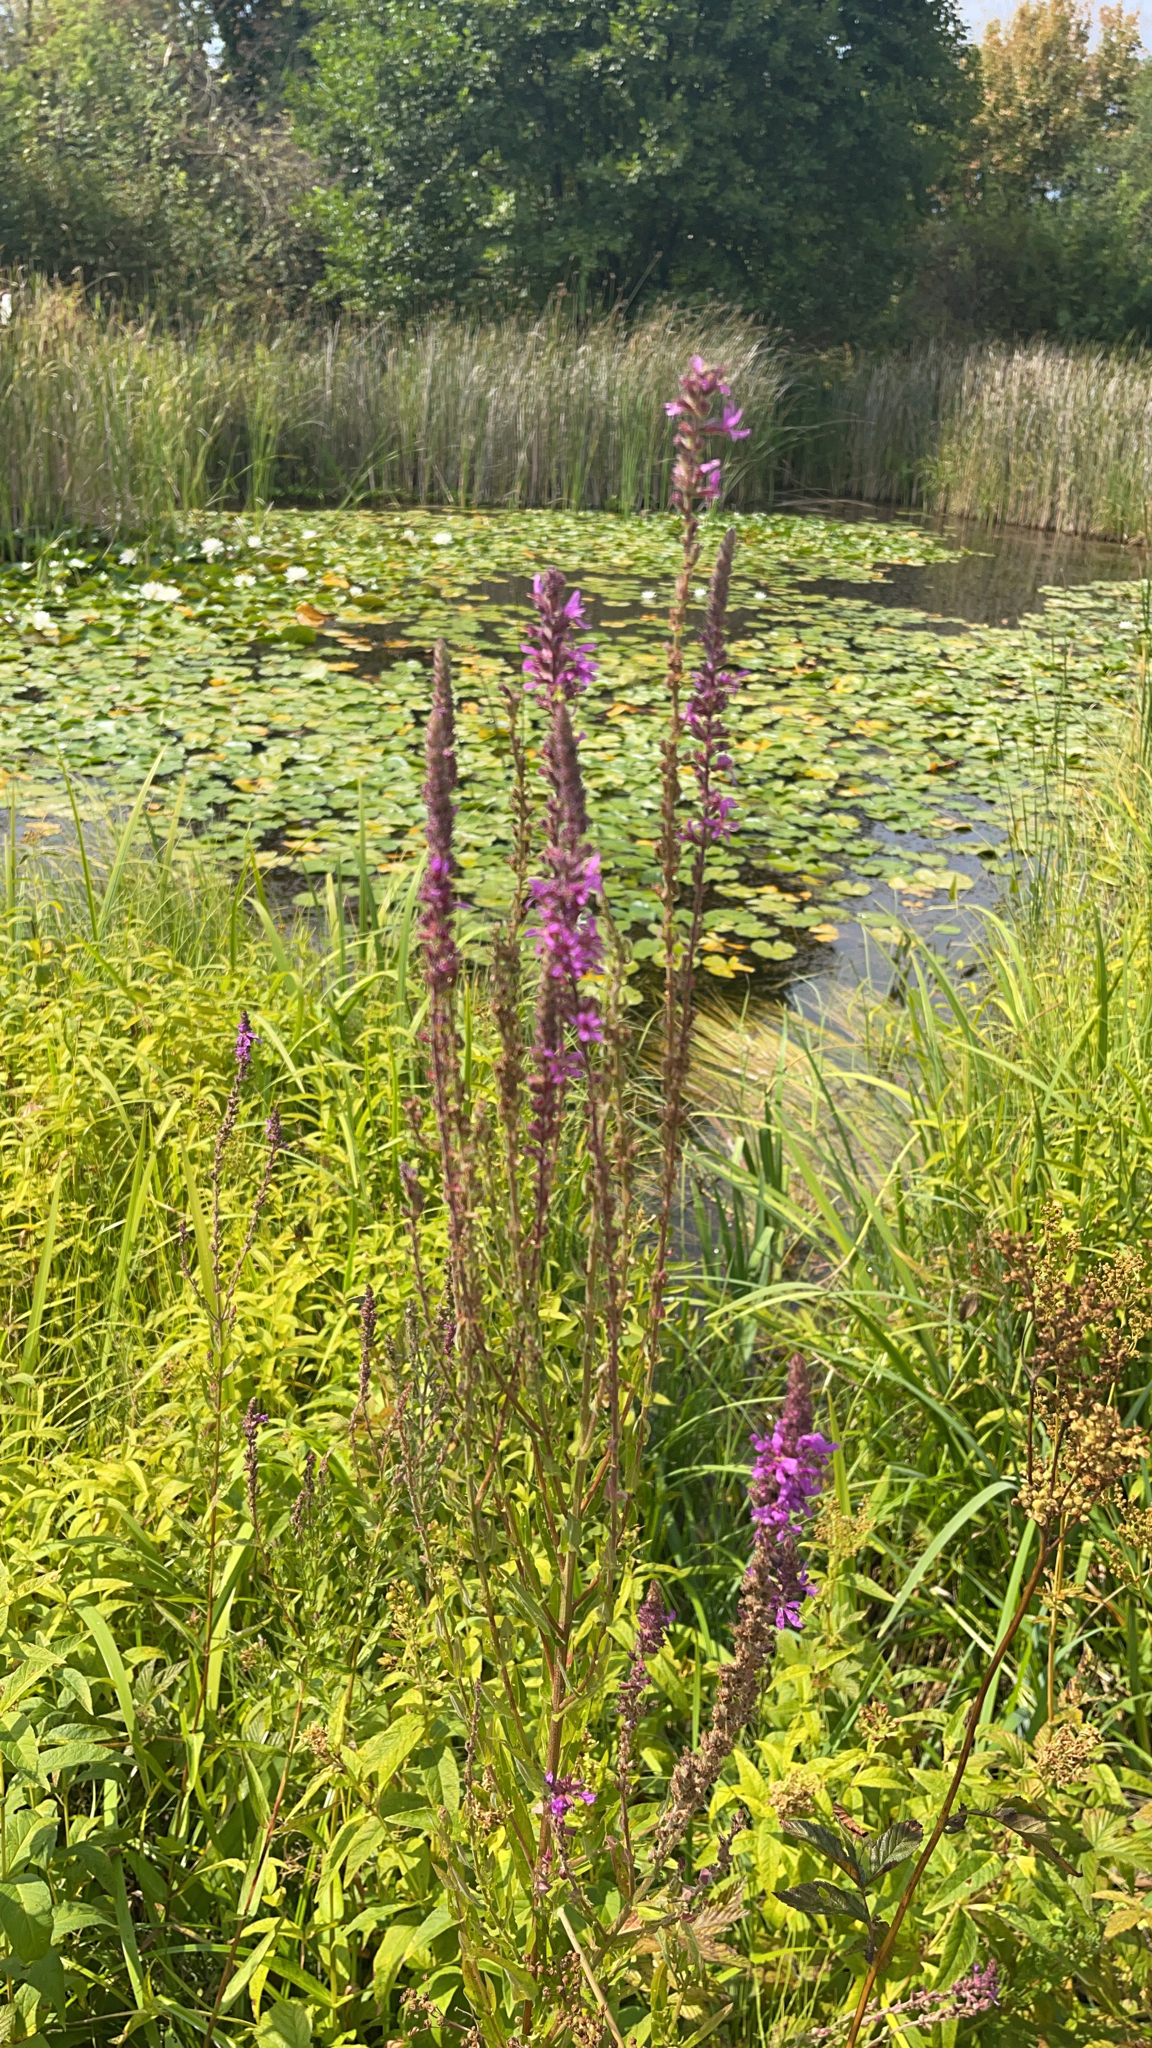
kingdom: Plantae
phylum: Tracheophyta
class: Magnoliopsida
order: Myrtales
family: Lythraceae
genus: Lythrum
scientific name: Lythrum salicaria
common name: Purple loosestrife
